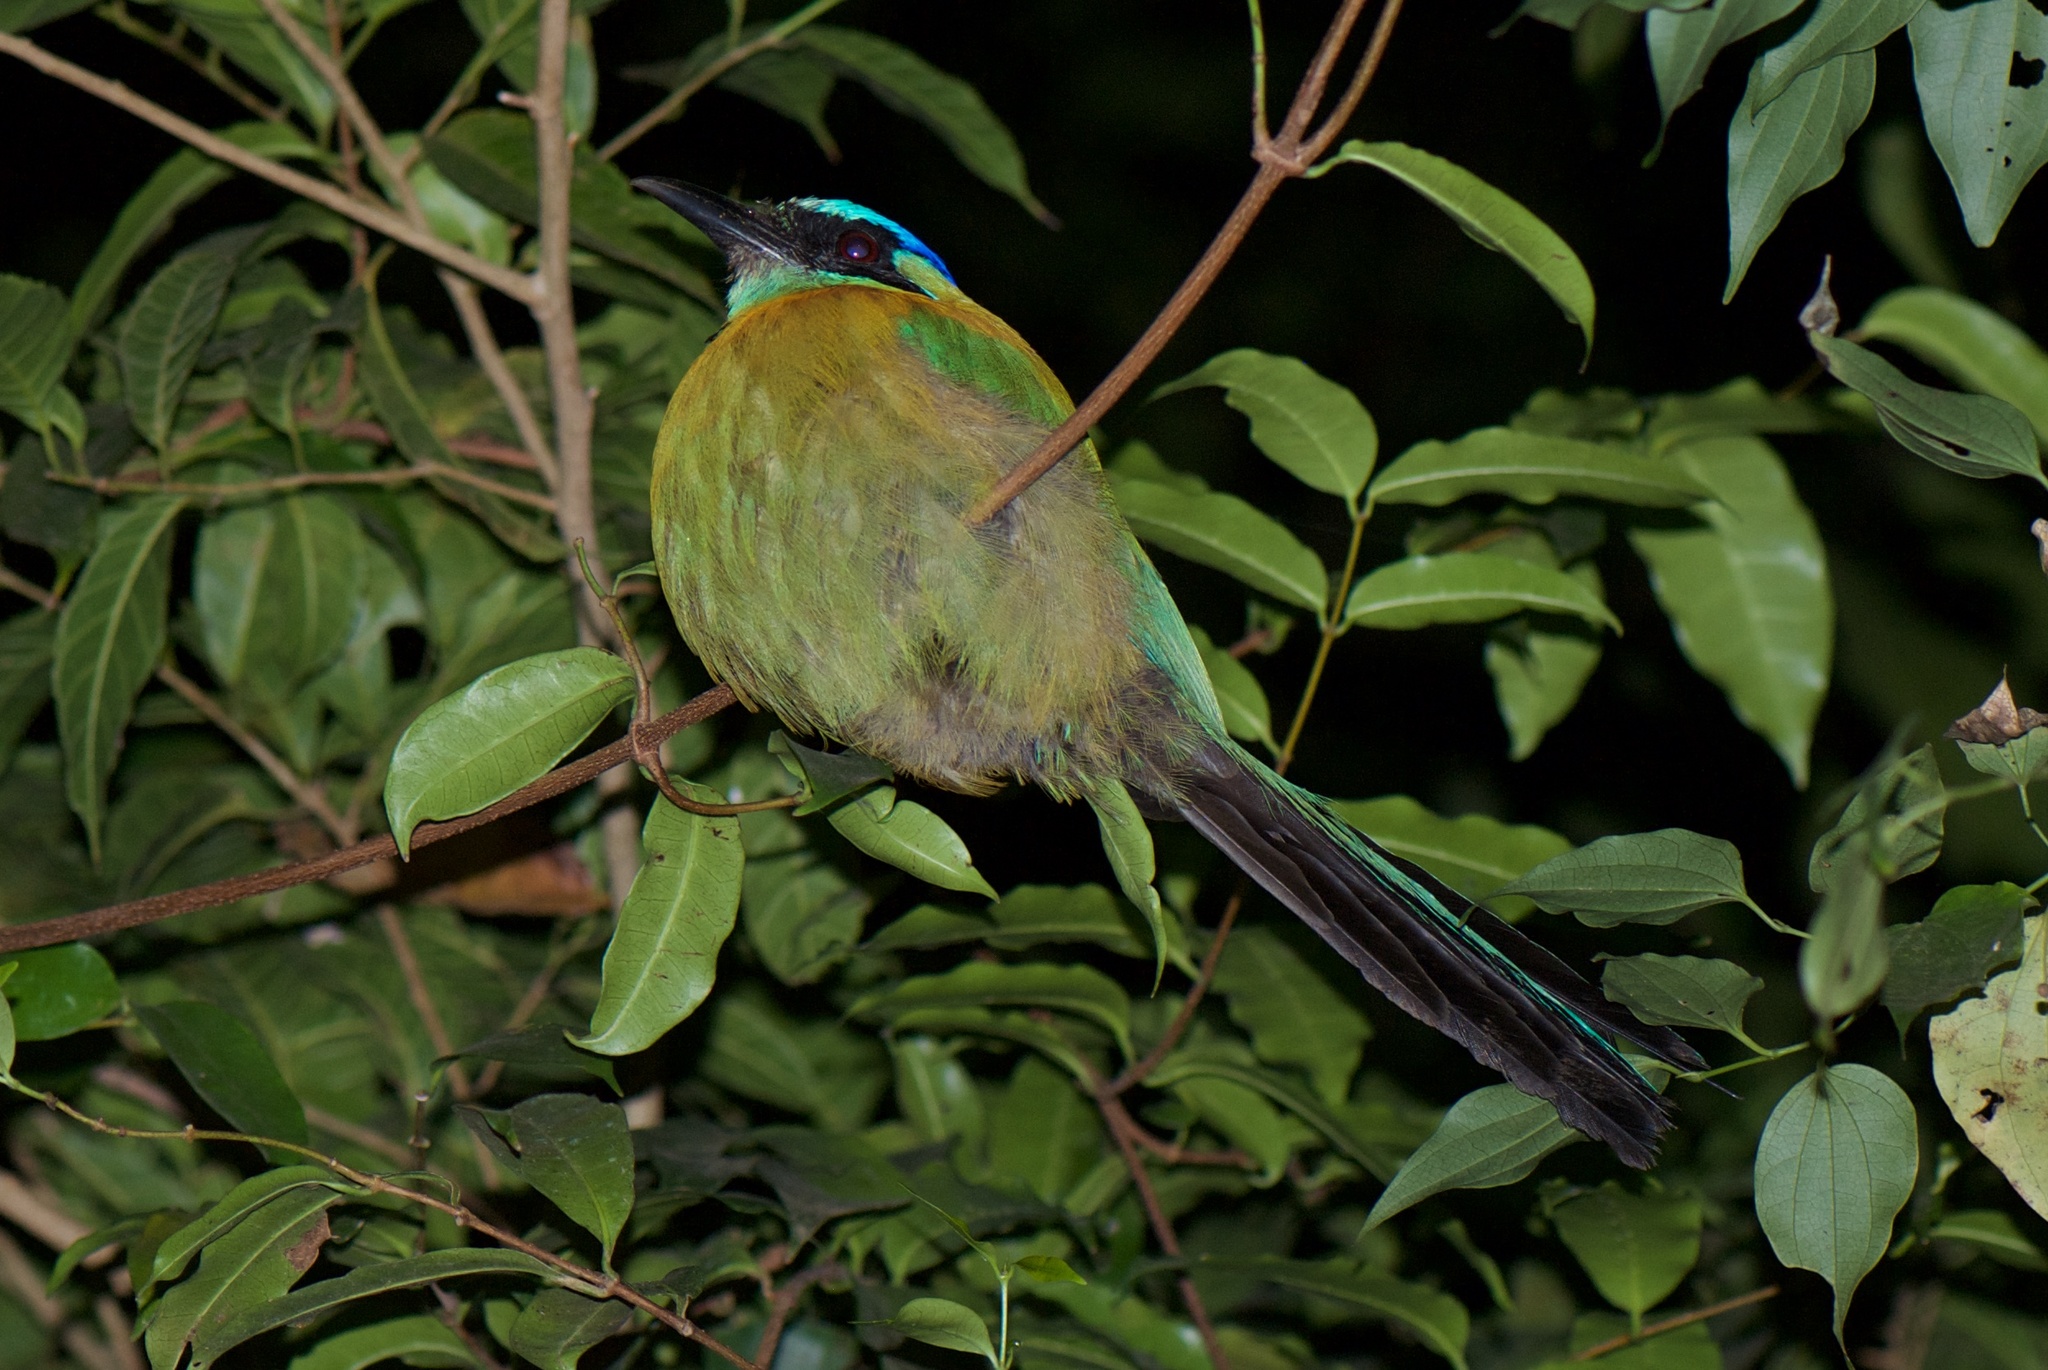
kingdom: Animalia
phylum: Chordata
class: Aves
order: Coraciiformes
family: Momotidae
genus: Momotus
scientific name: Momotus lessonii
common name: Lesson's motmot
